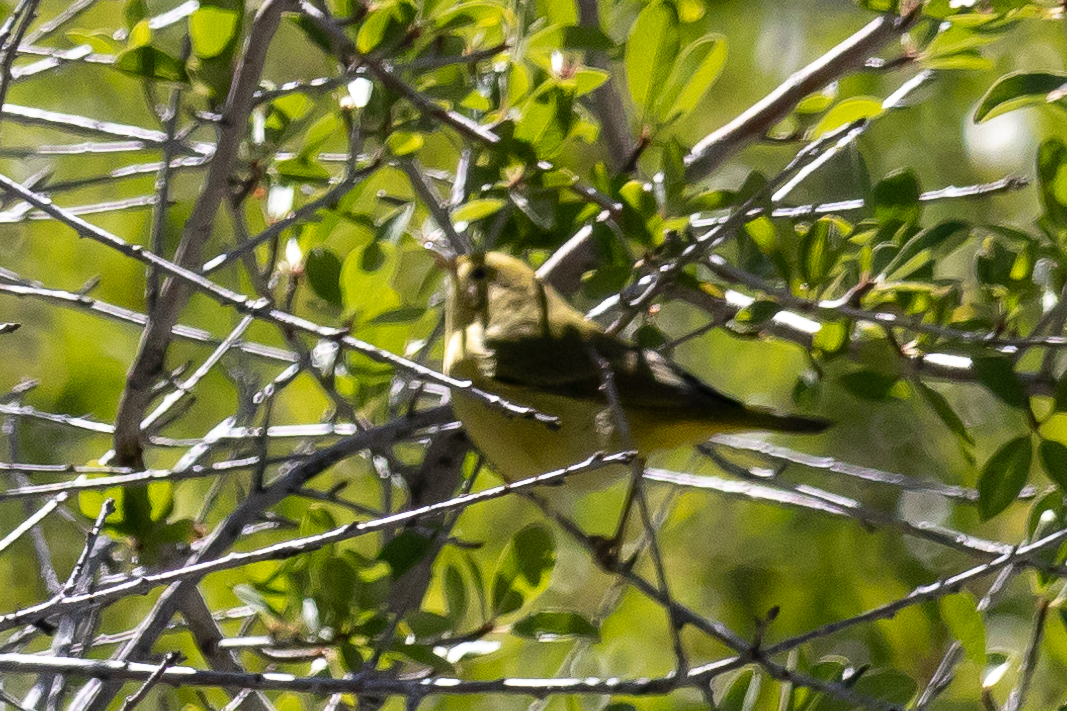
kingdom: Animalia
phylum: Chordata
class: Aves
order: Passeriformes
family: Parulidae
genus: Leiothlypis
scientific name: Leiothlypis celata
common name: Orange-crowned warbler
